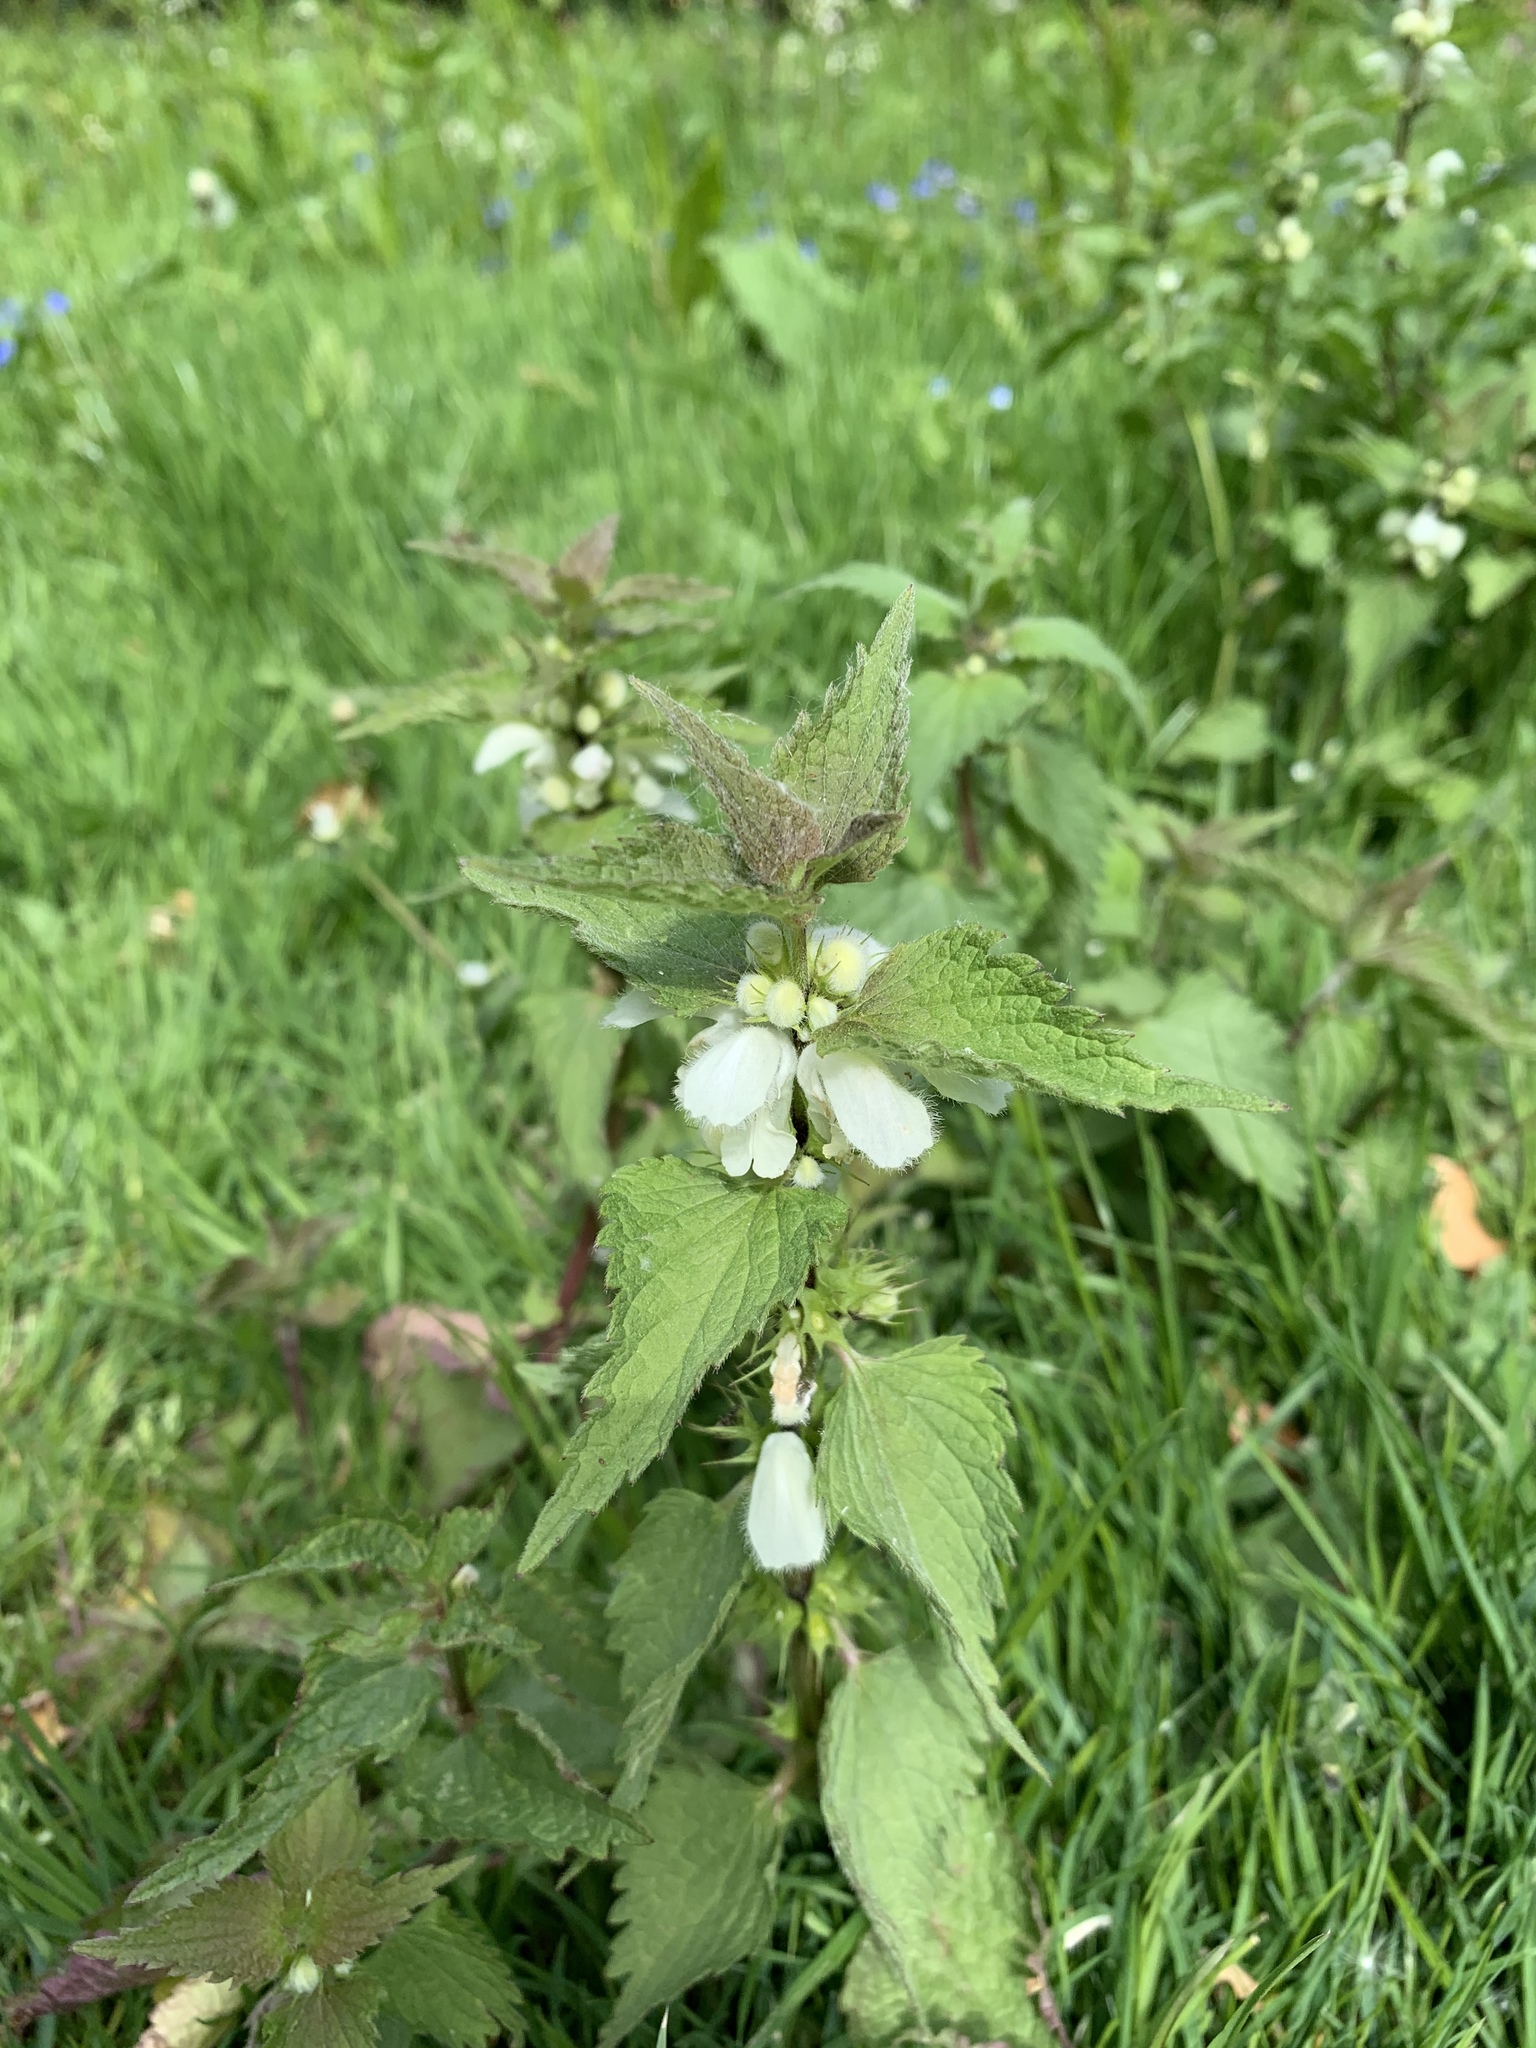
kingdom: Plantae
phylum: Tracheophyta
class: Magnoliopsida
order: Lamiales
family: Lamiaceae
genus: Lamium
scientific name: Lamium album
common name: White dead-nettle
